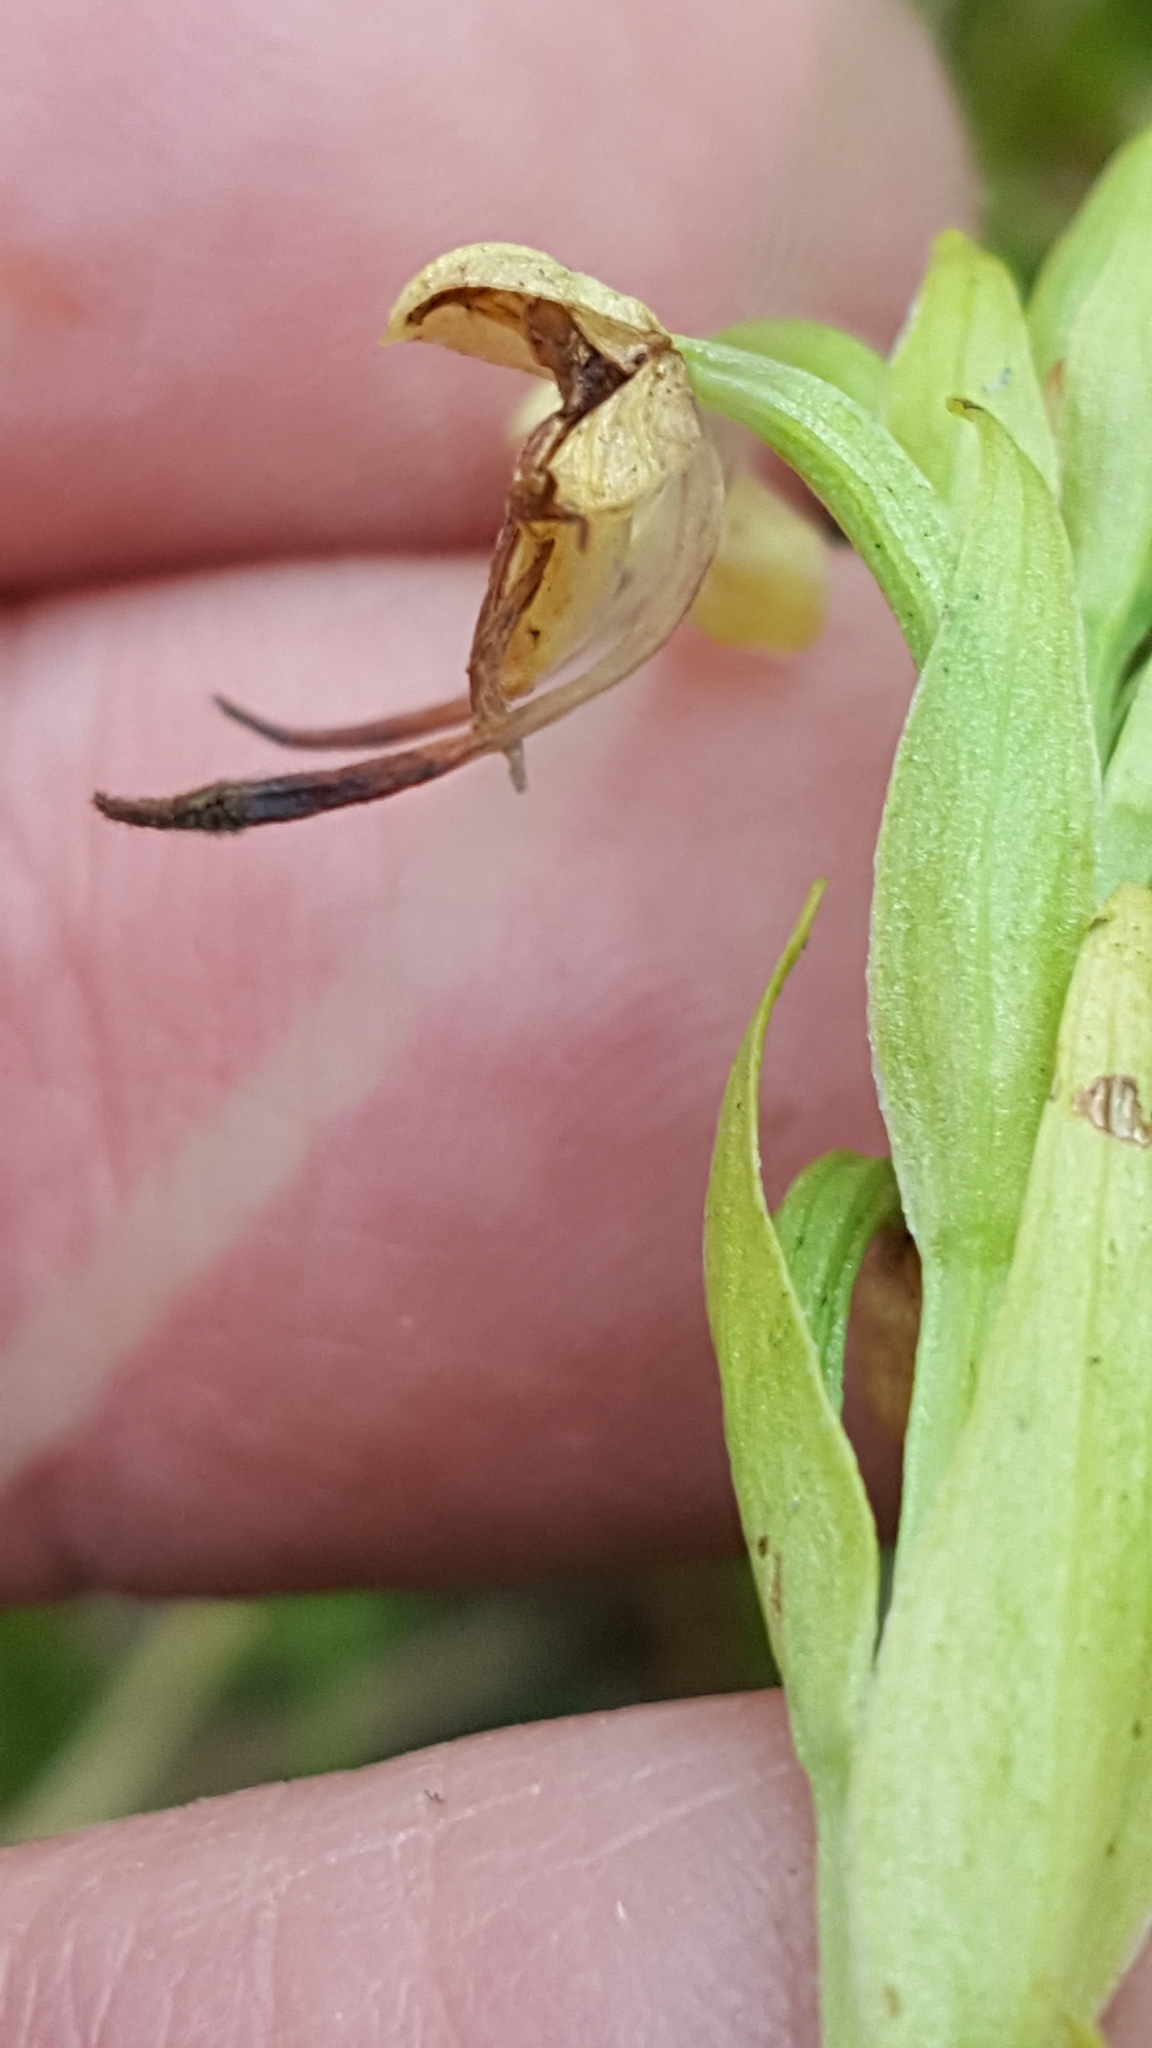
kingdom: Plantae
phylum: Tracheophyta
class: Liliopsida
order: Asparagales
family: Orchidaceae
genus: Platanthera
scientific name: Platanthera lacera
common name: Green fringed orchid
